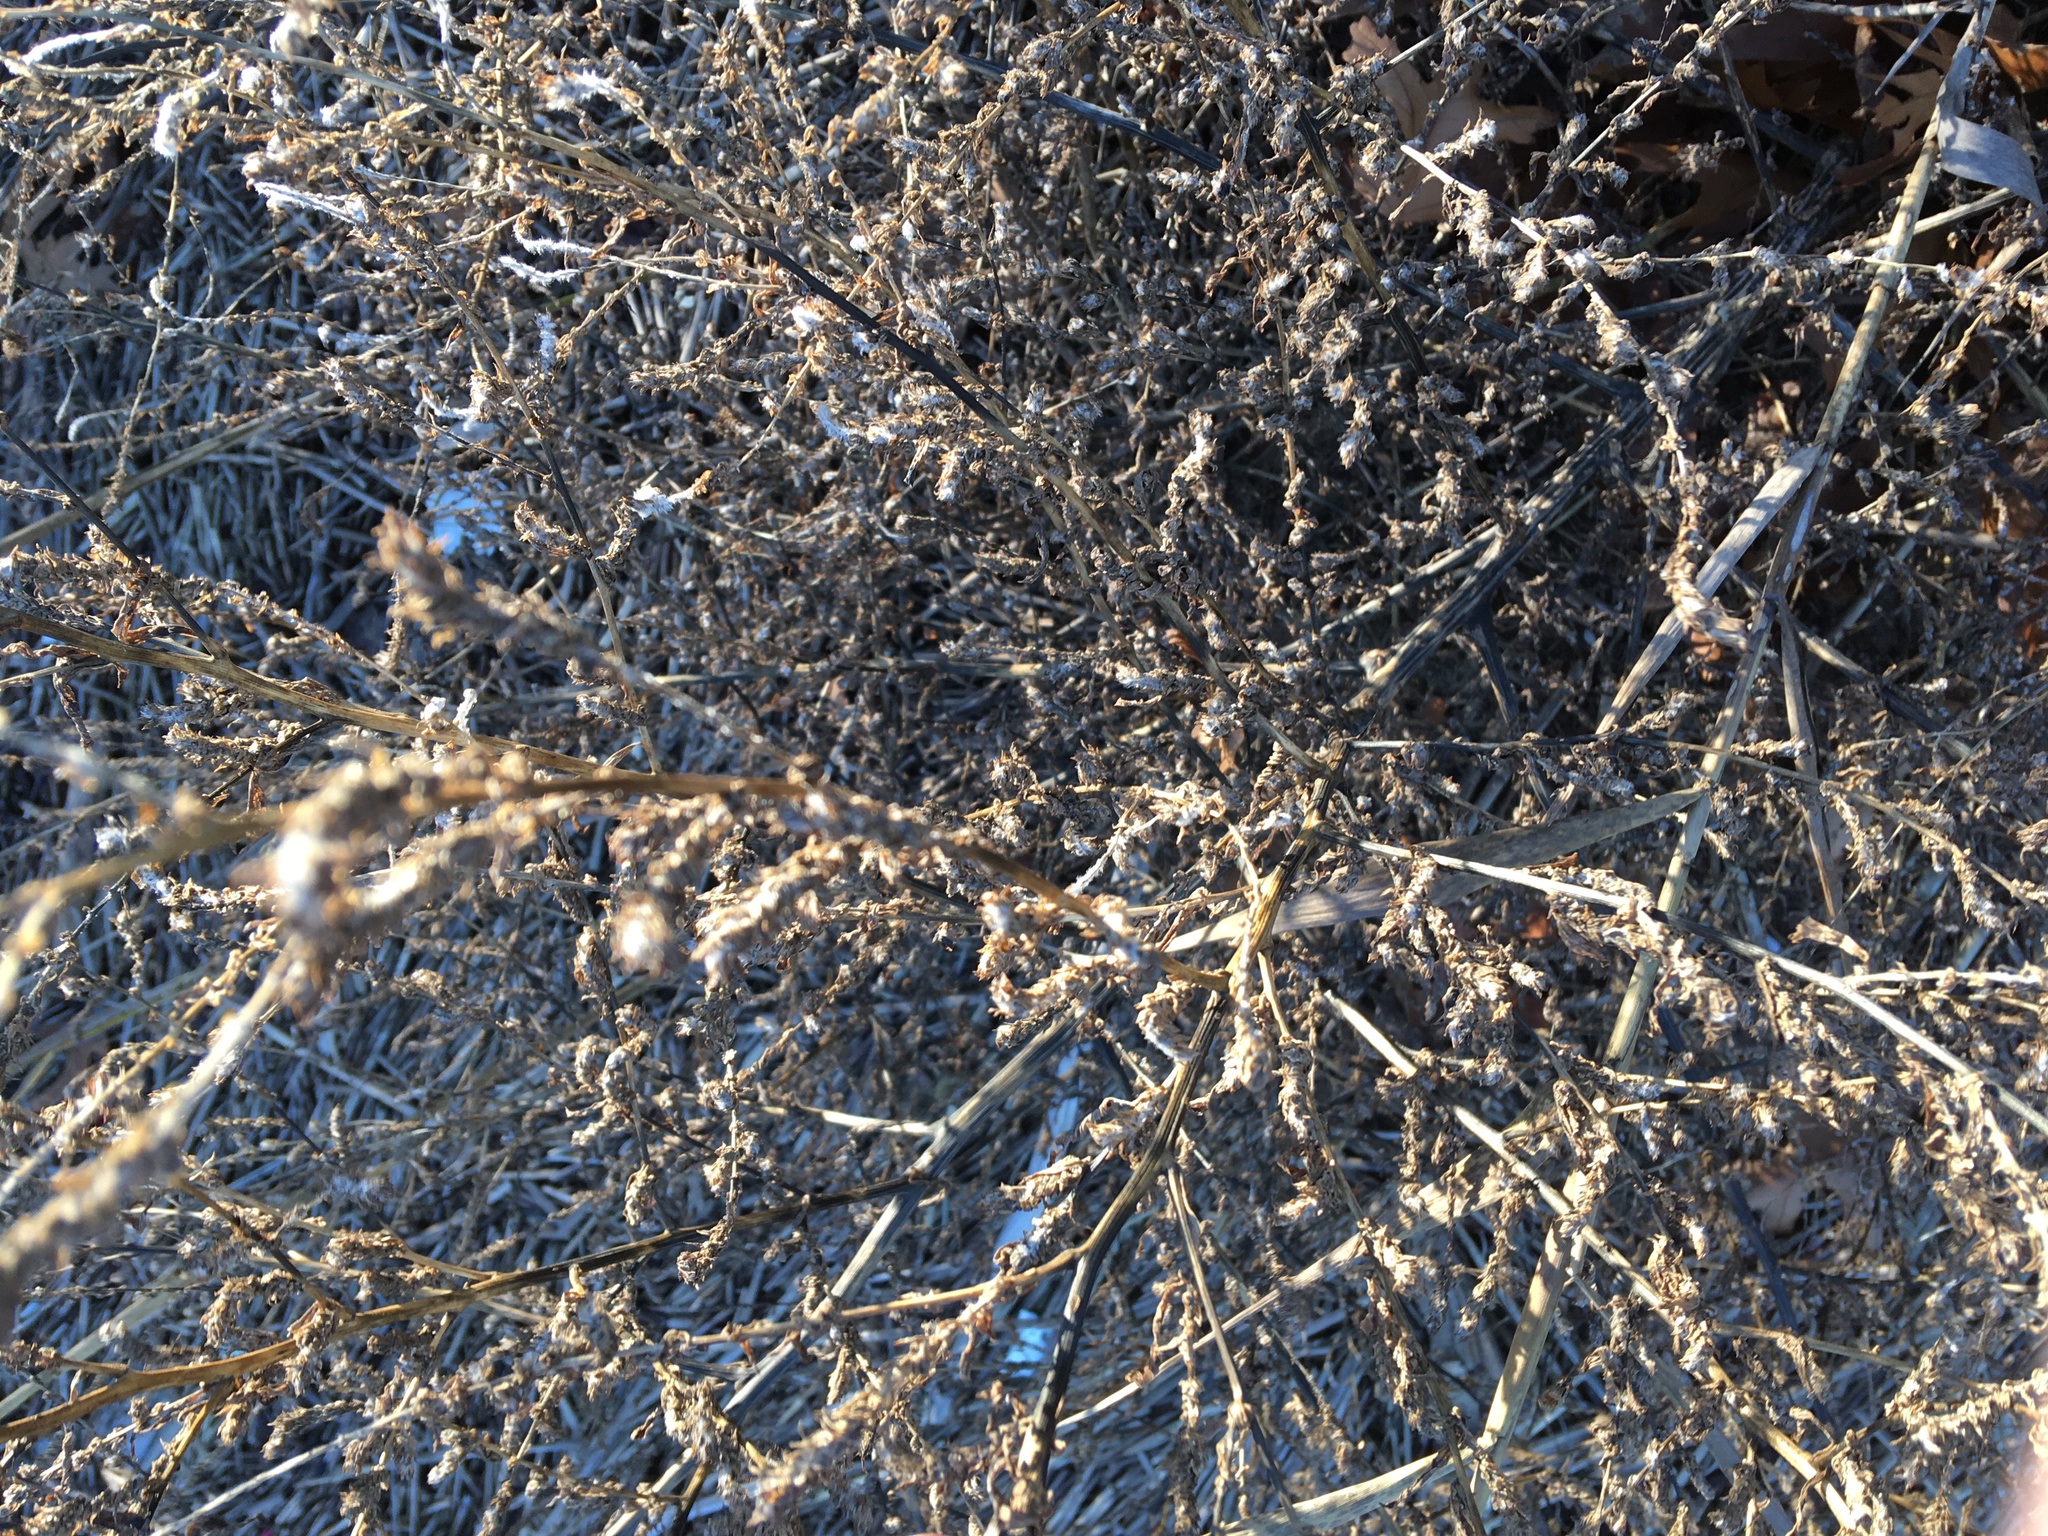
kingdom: Plantae
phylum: Tracheophyta
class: Magnoliopsida
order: Caryophyllales
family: Amaranthaceae
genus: Bassia
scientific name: Bassia scoparia
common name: Belvedere
